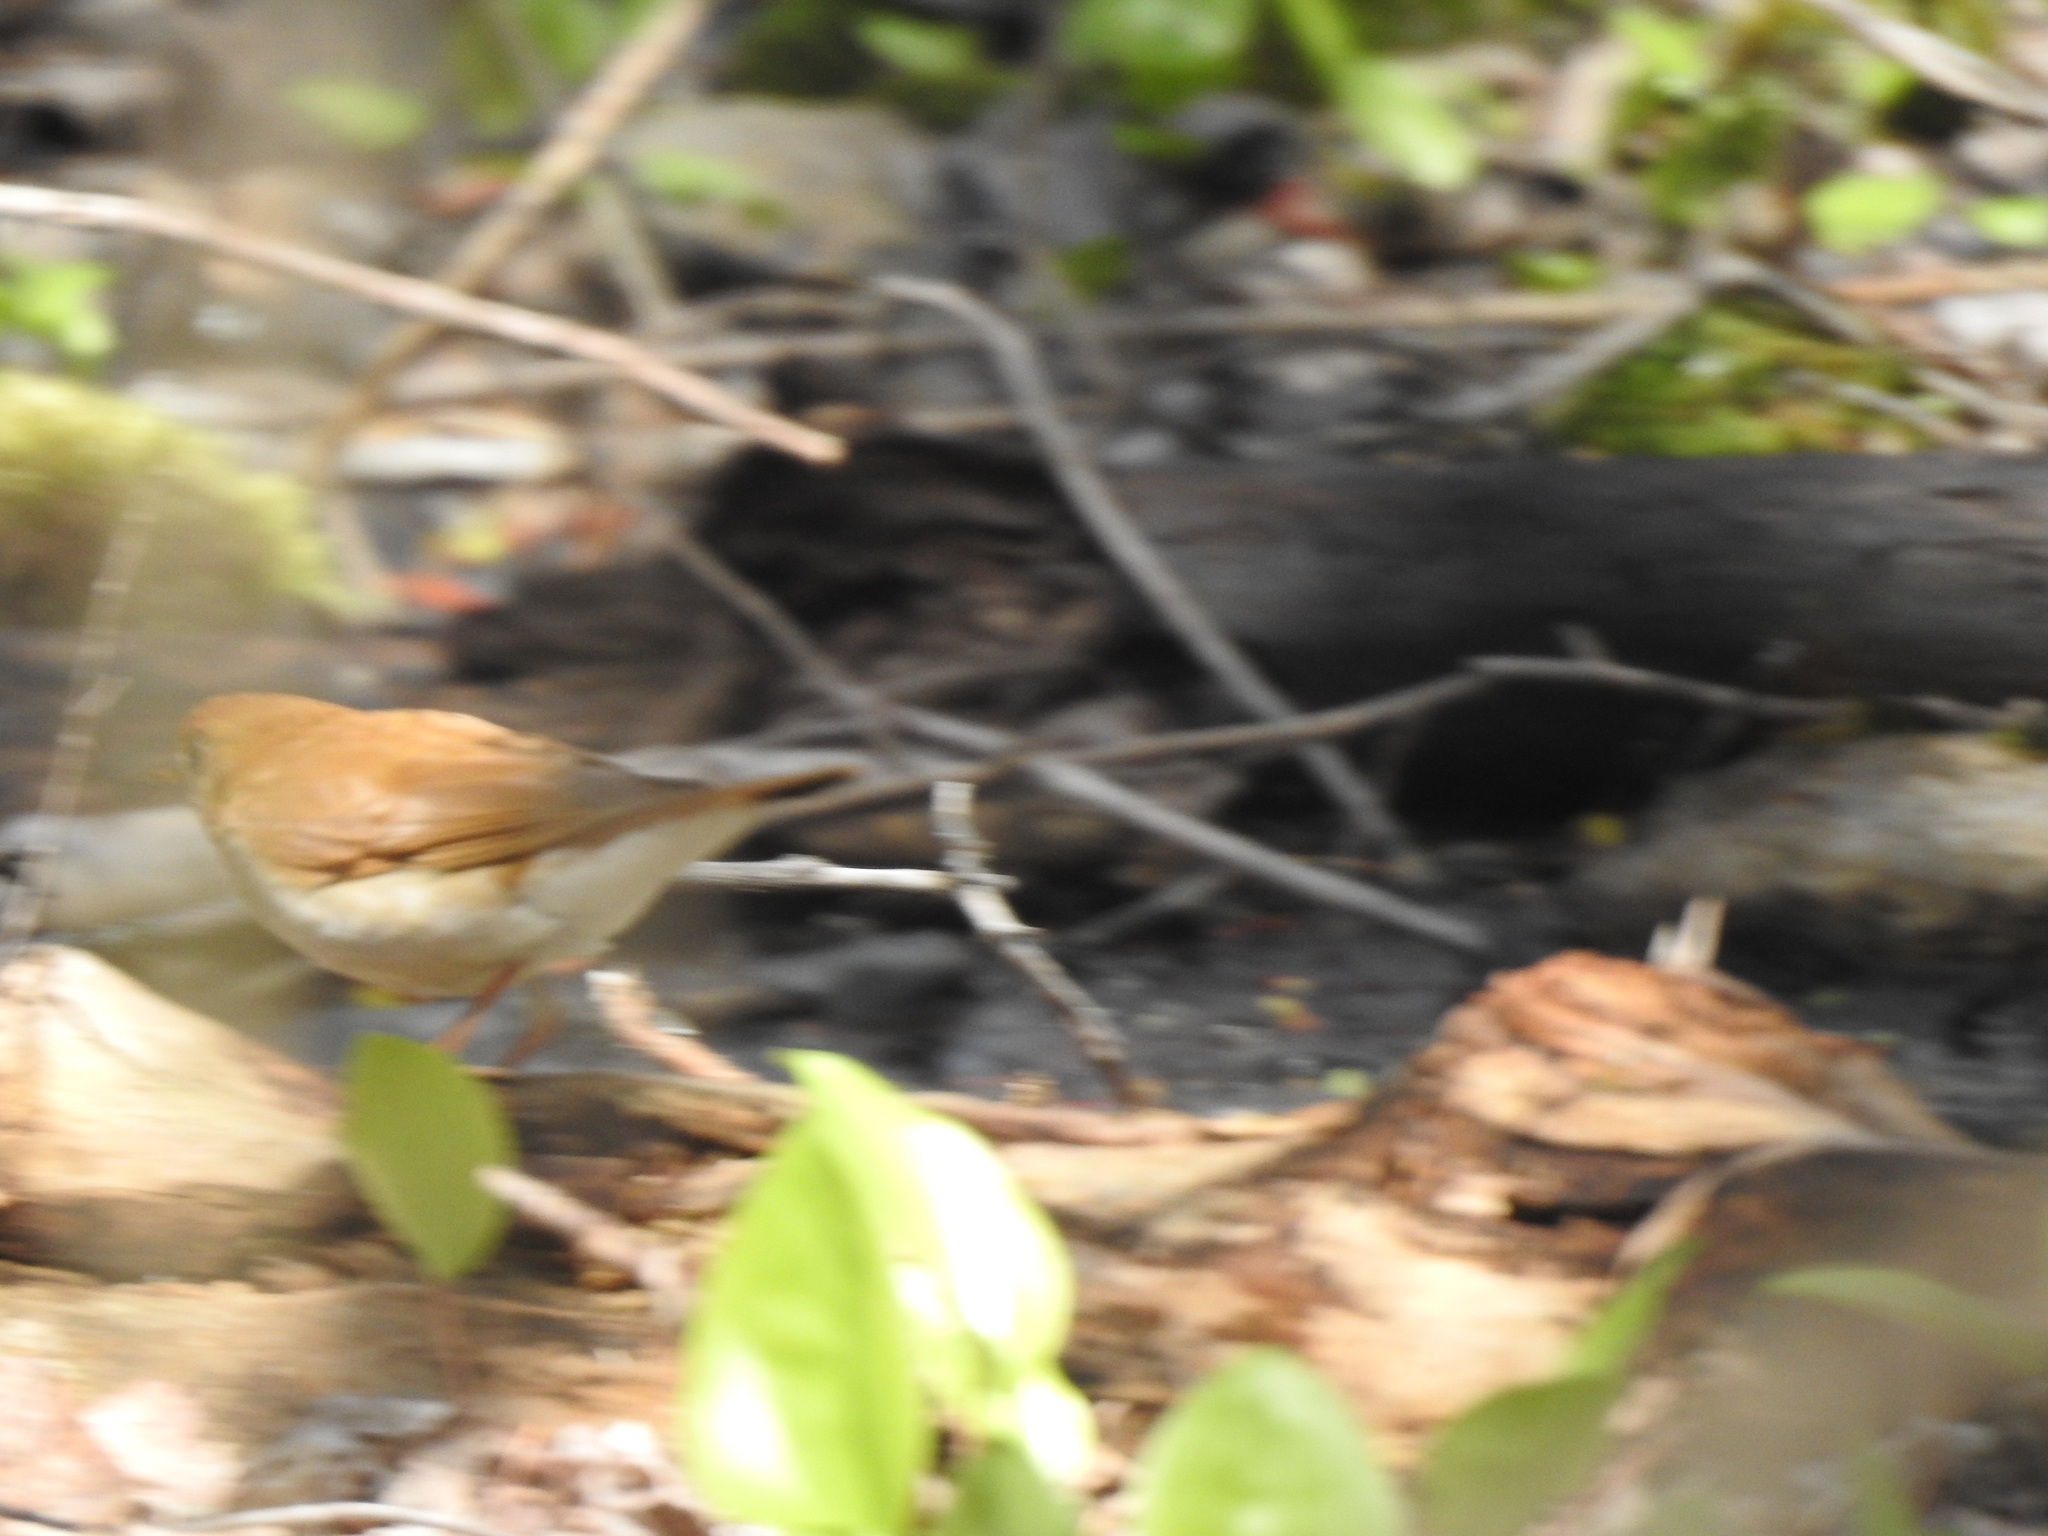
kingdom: Animalia
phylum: Chordata
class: Aves
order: Passeriformes
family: Turdidae
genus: Catharus
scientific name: Catharus fuscescens
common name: Veery
